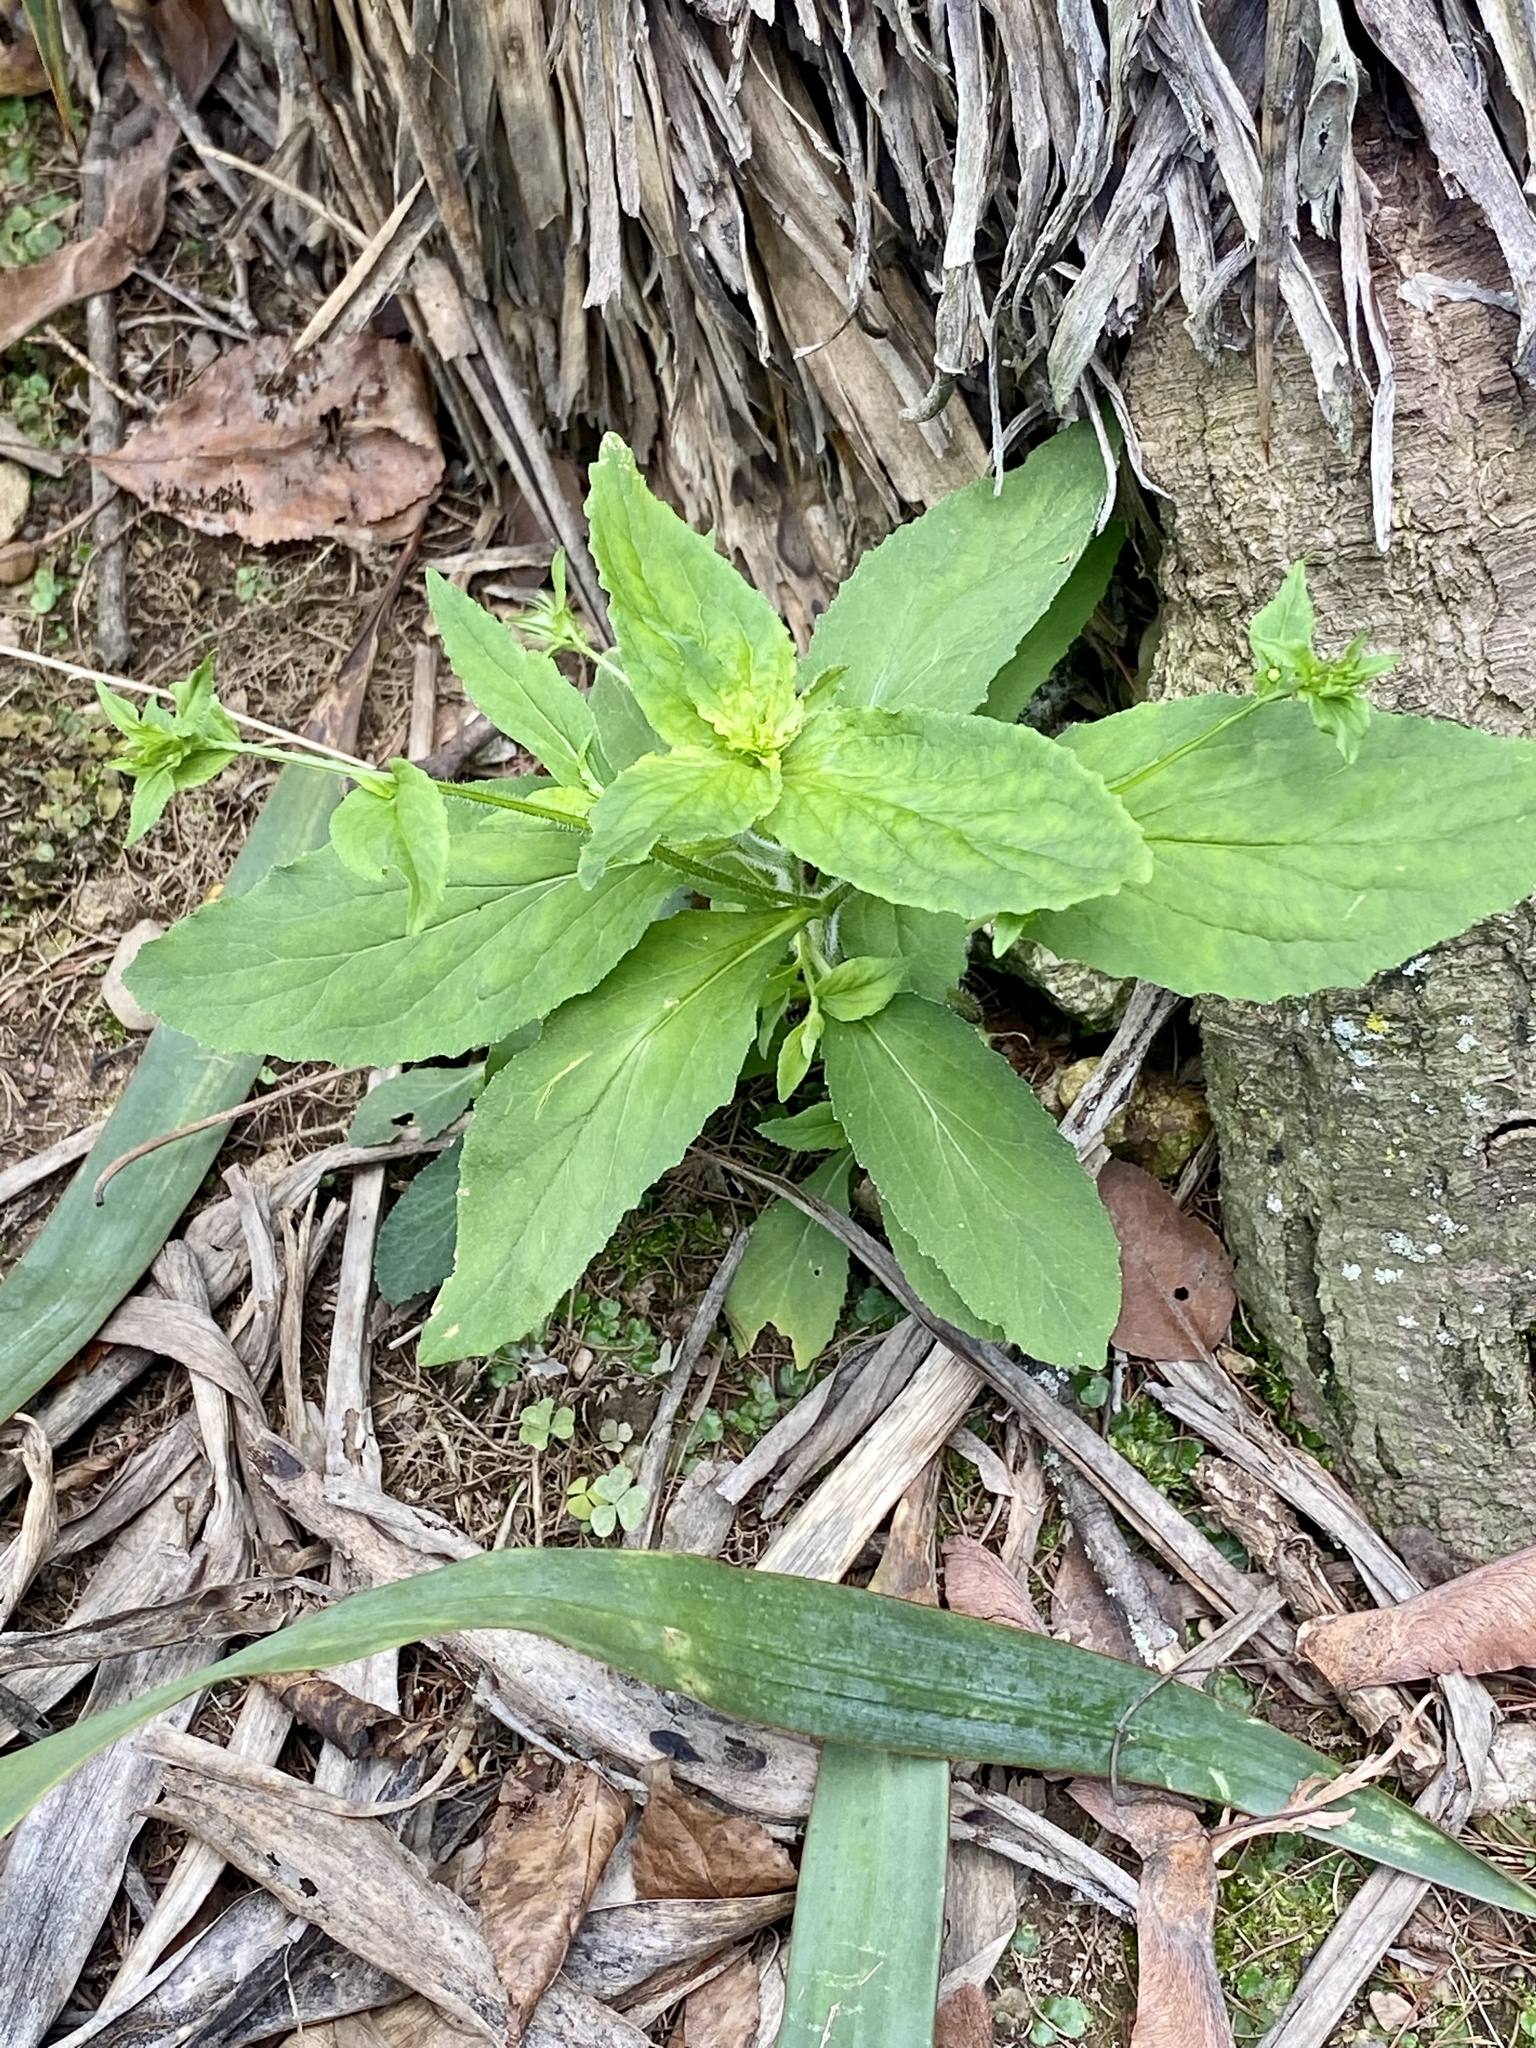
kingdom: Plantae
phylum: Tracheophyta
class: Magnoliopsida
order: Asterales
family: Campanulaceae
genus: Lobelia
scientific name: Lobelia inflata
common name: Indian tobacco
